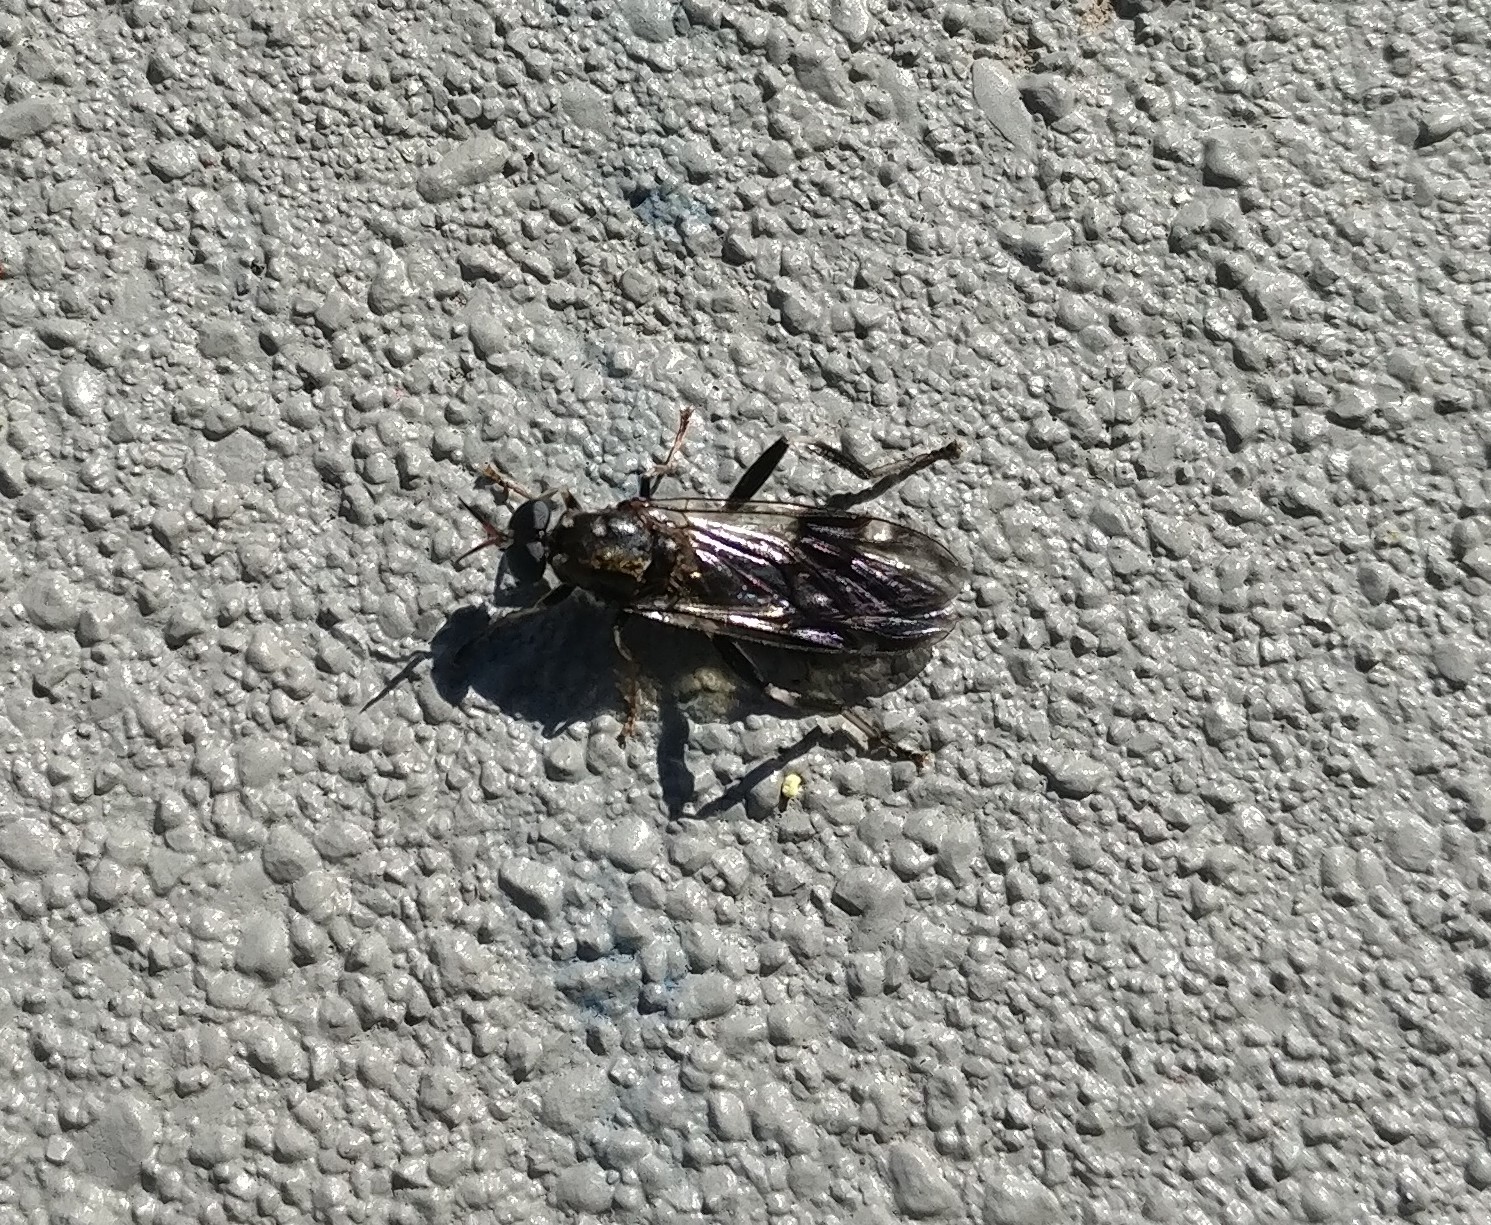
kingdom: Animalia
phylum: Arthropoda
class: Insecta
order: Diptera
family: Stratiomyidae
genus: Exaireta
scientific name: Exaireta spinigera
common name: Blue soldier fly
